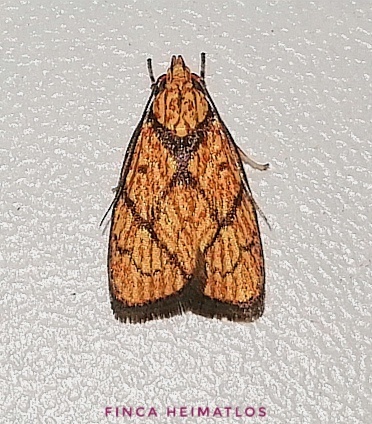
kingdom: Animalia
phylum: Arthropoda
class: Insecta
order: Lepidoptera
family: Peleopodidae
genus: Machimia
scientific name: Machimia
